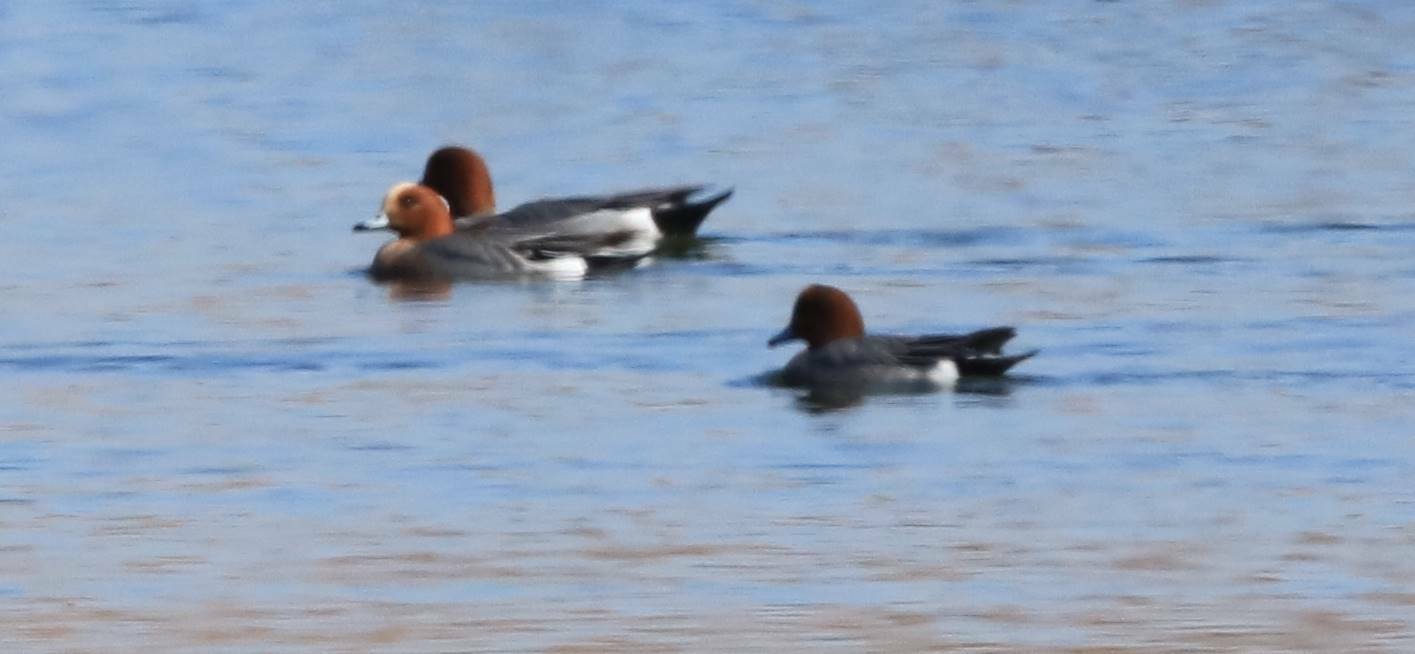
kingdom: Animalia
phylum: Chordata
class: Aves
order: Anseriformes
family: Anatidae
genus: Mareca
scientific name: Mareca penelope
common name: Eurasian wigeon
